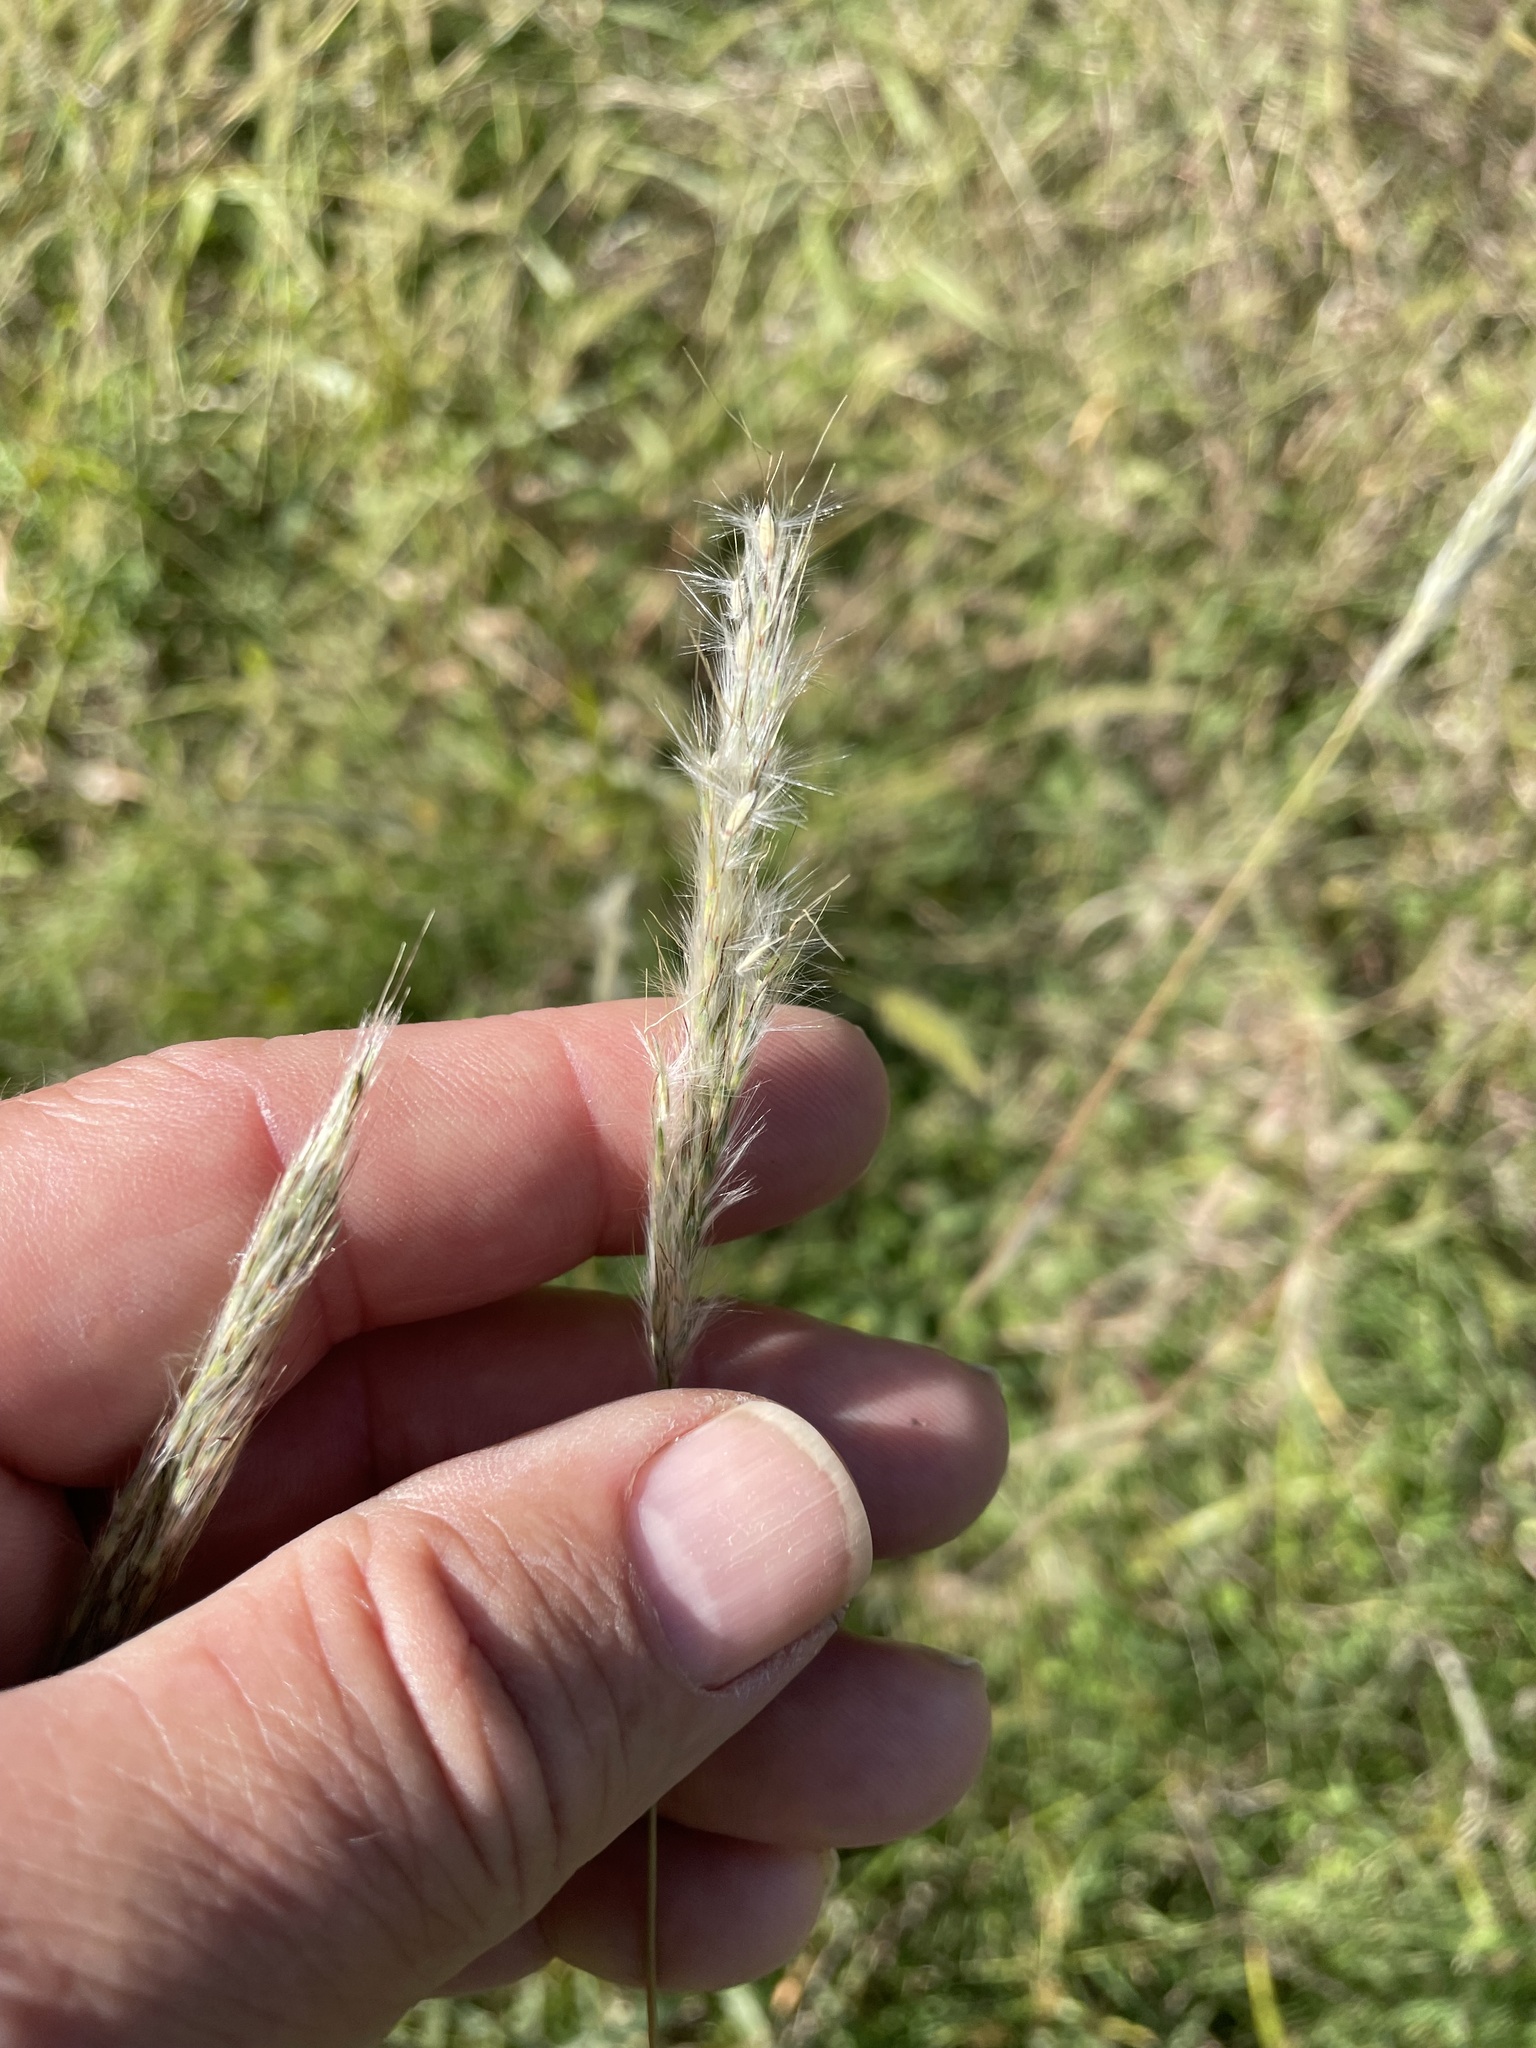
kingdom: Plantae
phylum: Tracheophyta
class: Liliopsida
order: Poales
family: Poaceae
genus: Bothriochloa
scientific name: Bothriochloa torreyana
